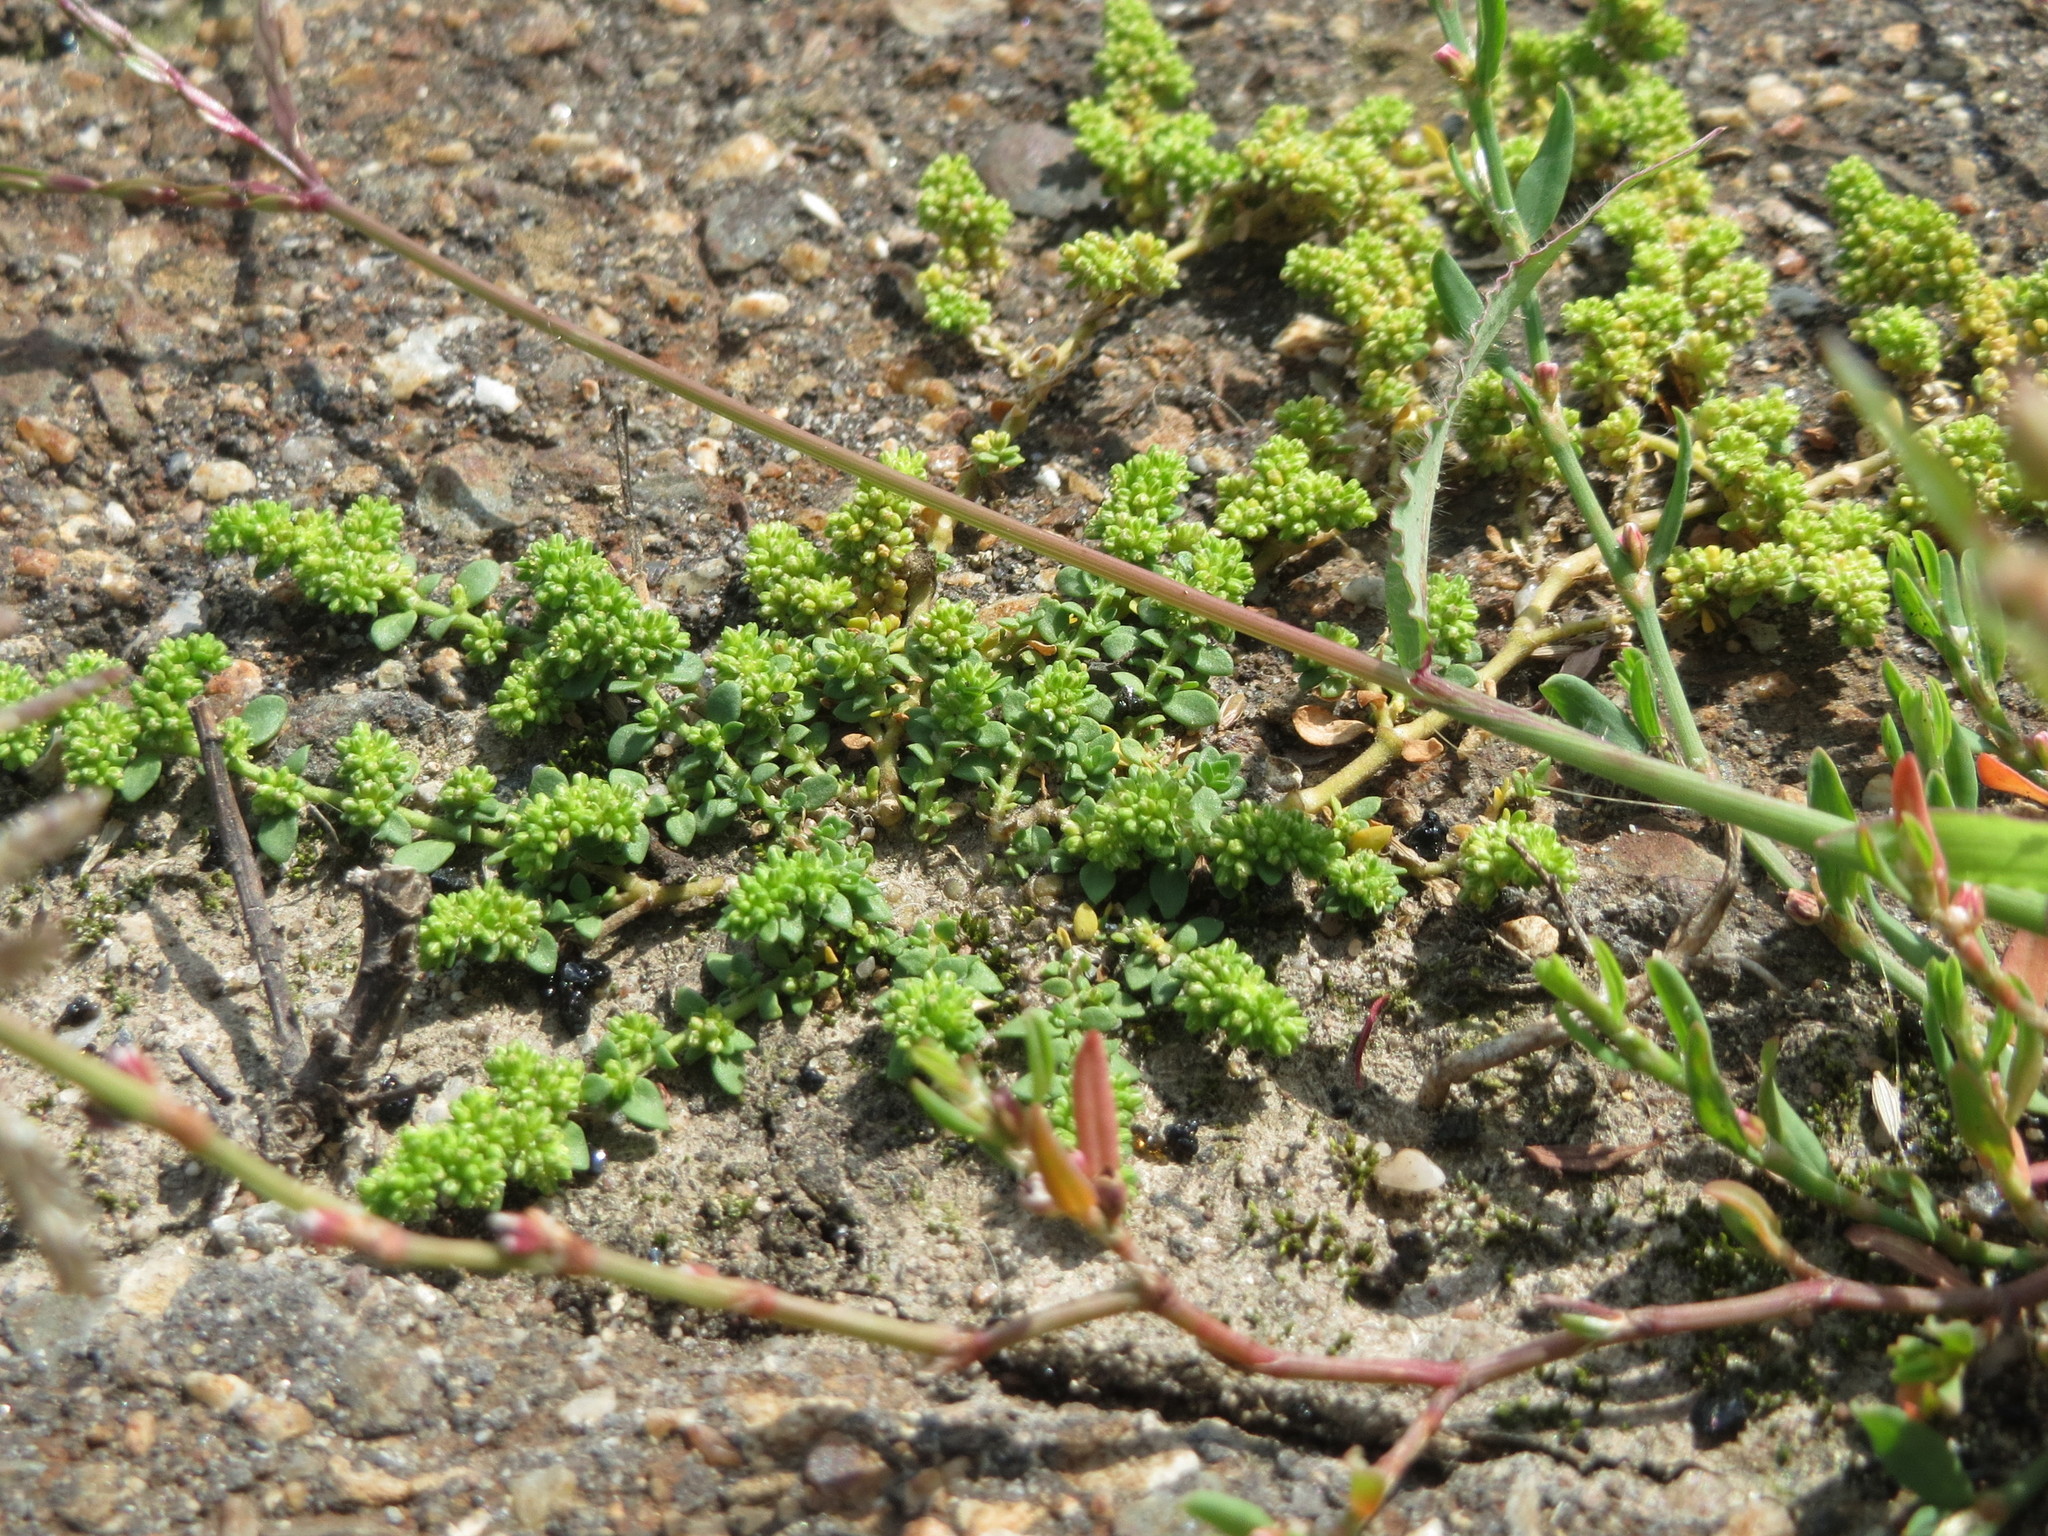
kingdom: Plantae
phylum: Tracheophyta
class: Magnoliopsida
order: Caryophyllales
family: Caryophyllaceae
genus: Herniaria
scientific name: Herniaria glabra
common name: Smooth rupturewort
